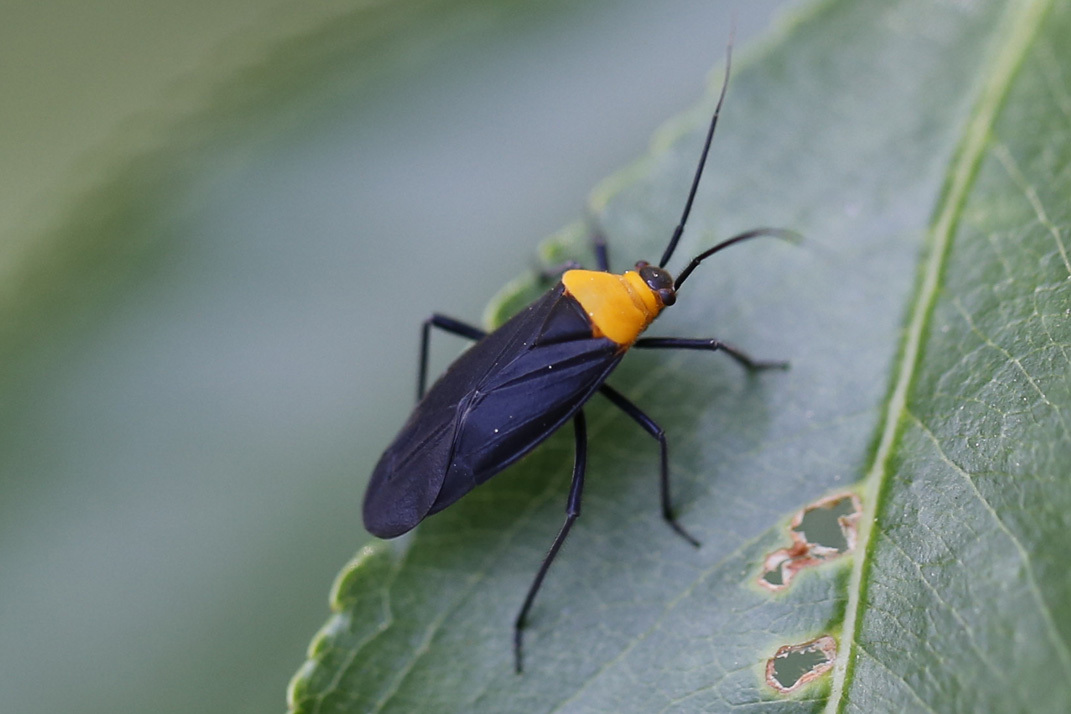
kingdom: Animalia
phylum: Arthropoda
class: Insecta
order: Hemiptera
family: Miridae
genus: Prepops
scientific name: Prepops nigroscutellatus
